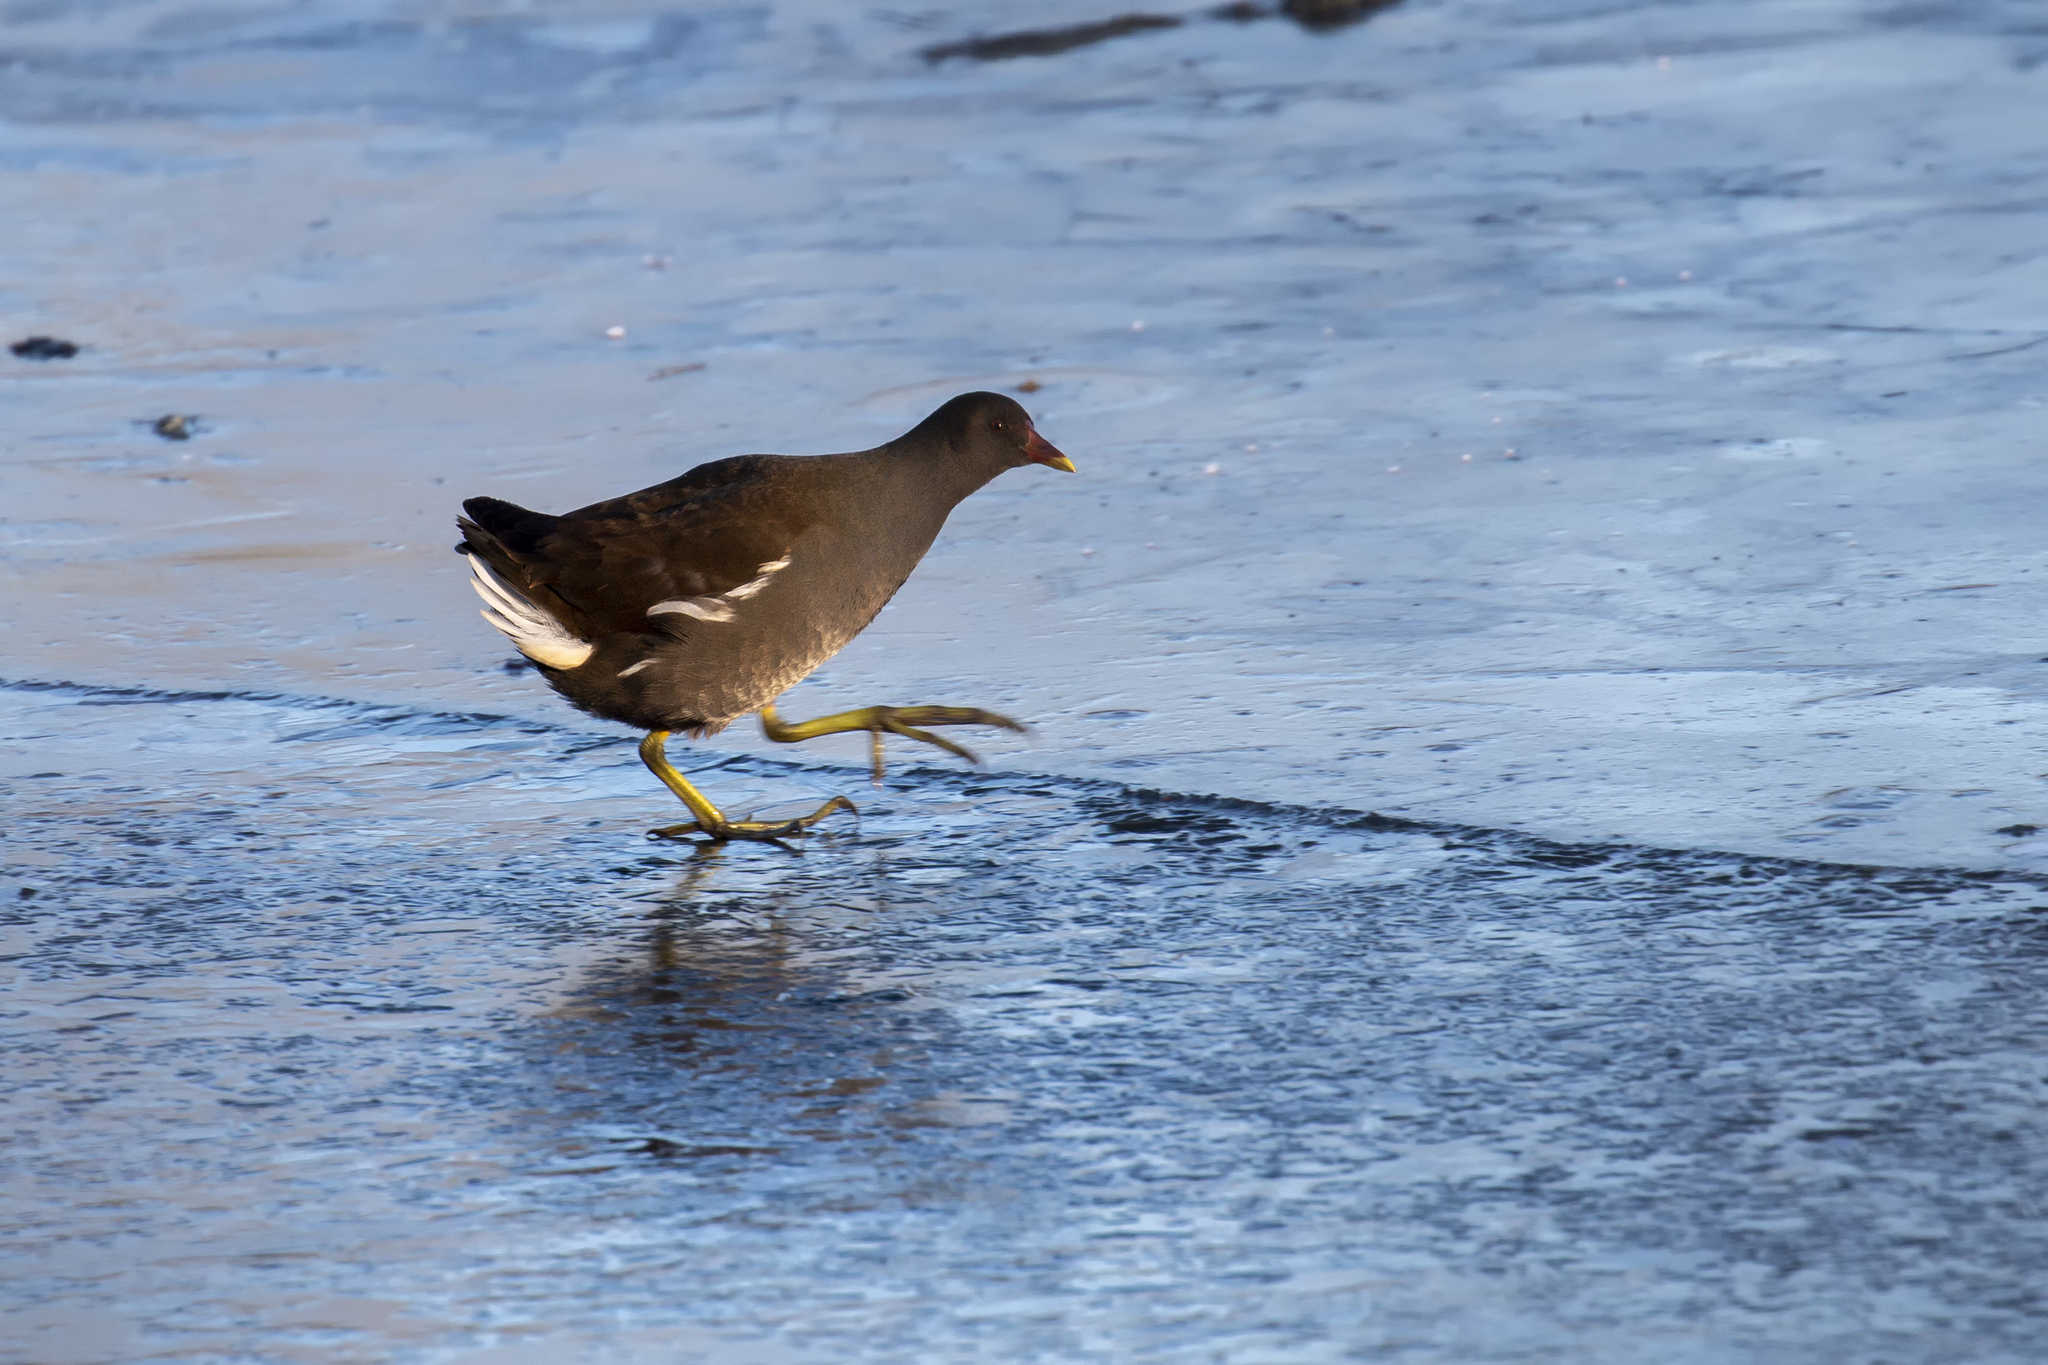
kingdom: Animalia
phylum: Chordata
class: Aves
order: Gruiformes
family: Rallidae
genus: Gallinula
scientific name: Gallinula chloropus
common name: Common moorhen
